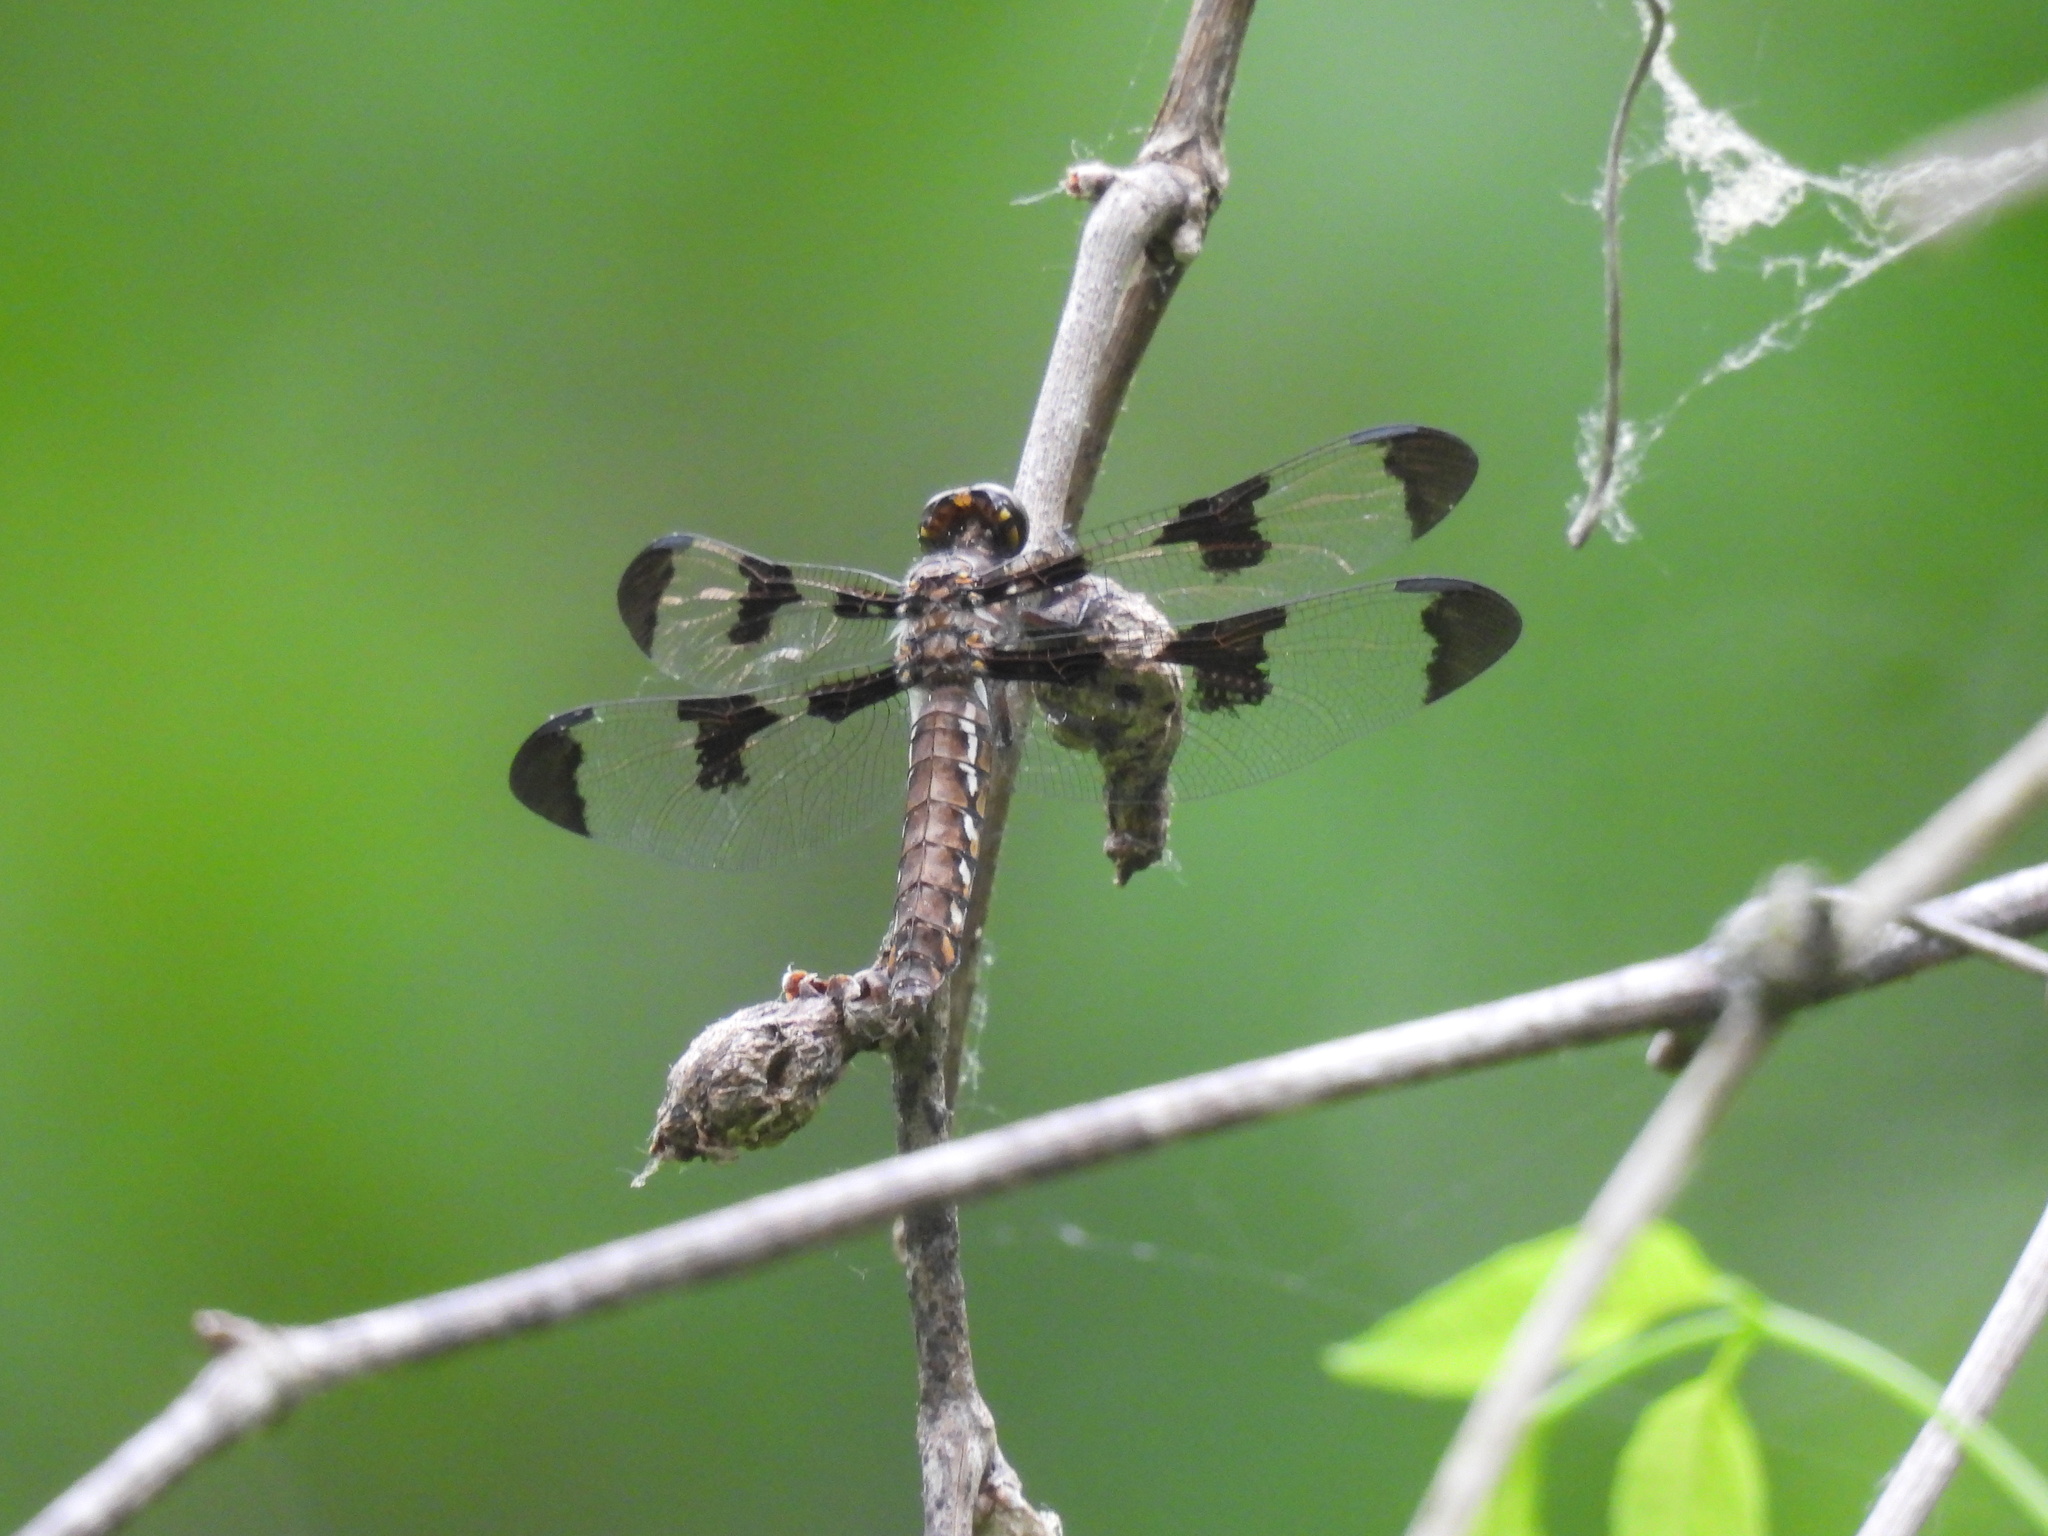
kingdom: Animalia
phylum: Arthropoda
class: Insecta
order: Odonata
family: Libellulidae
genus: Plathemis
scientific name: Plathemis lydia
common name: Common whitetail
